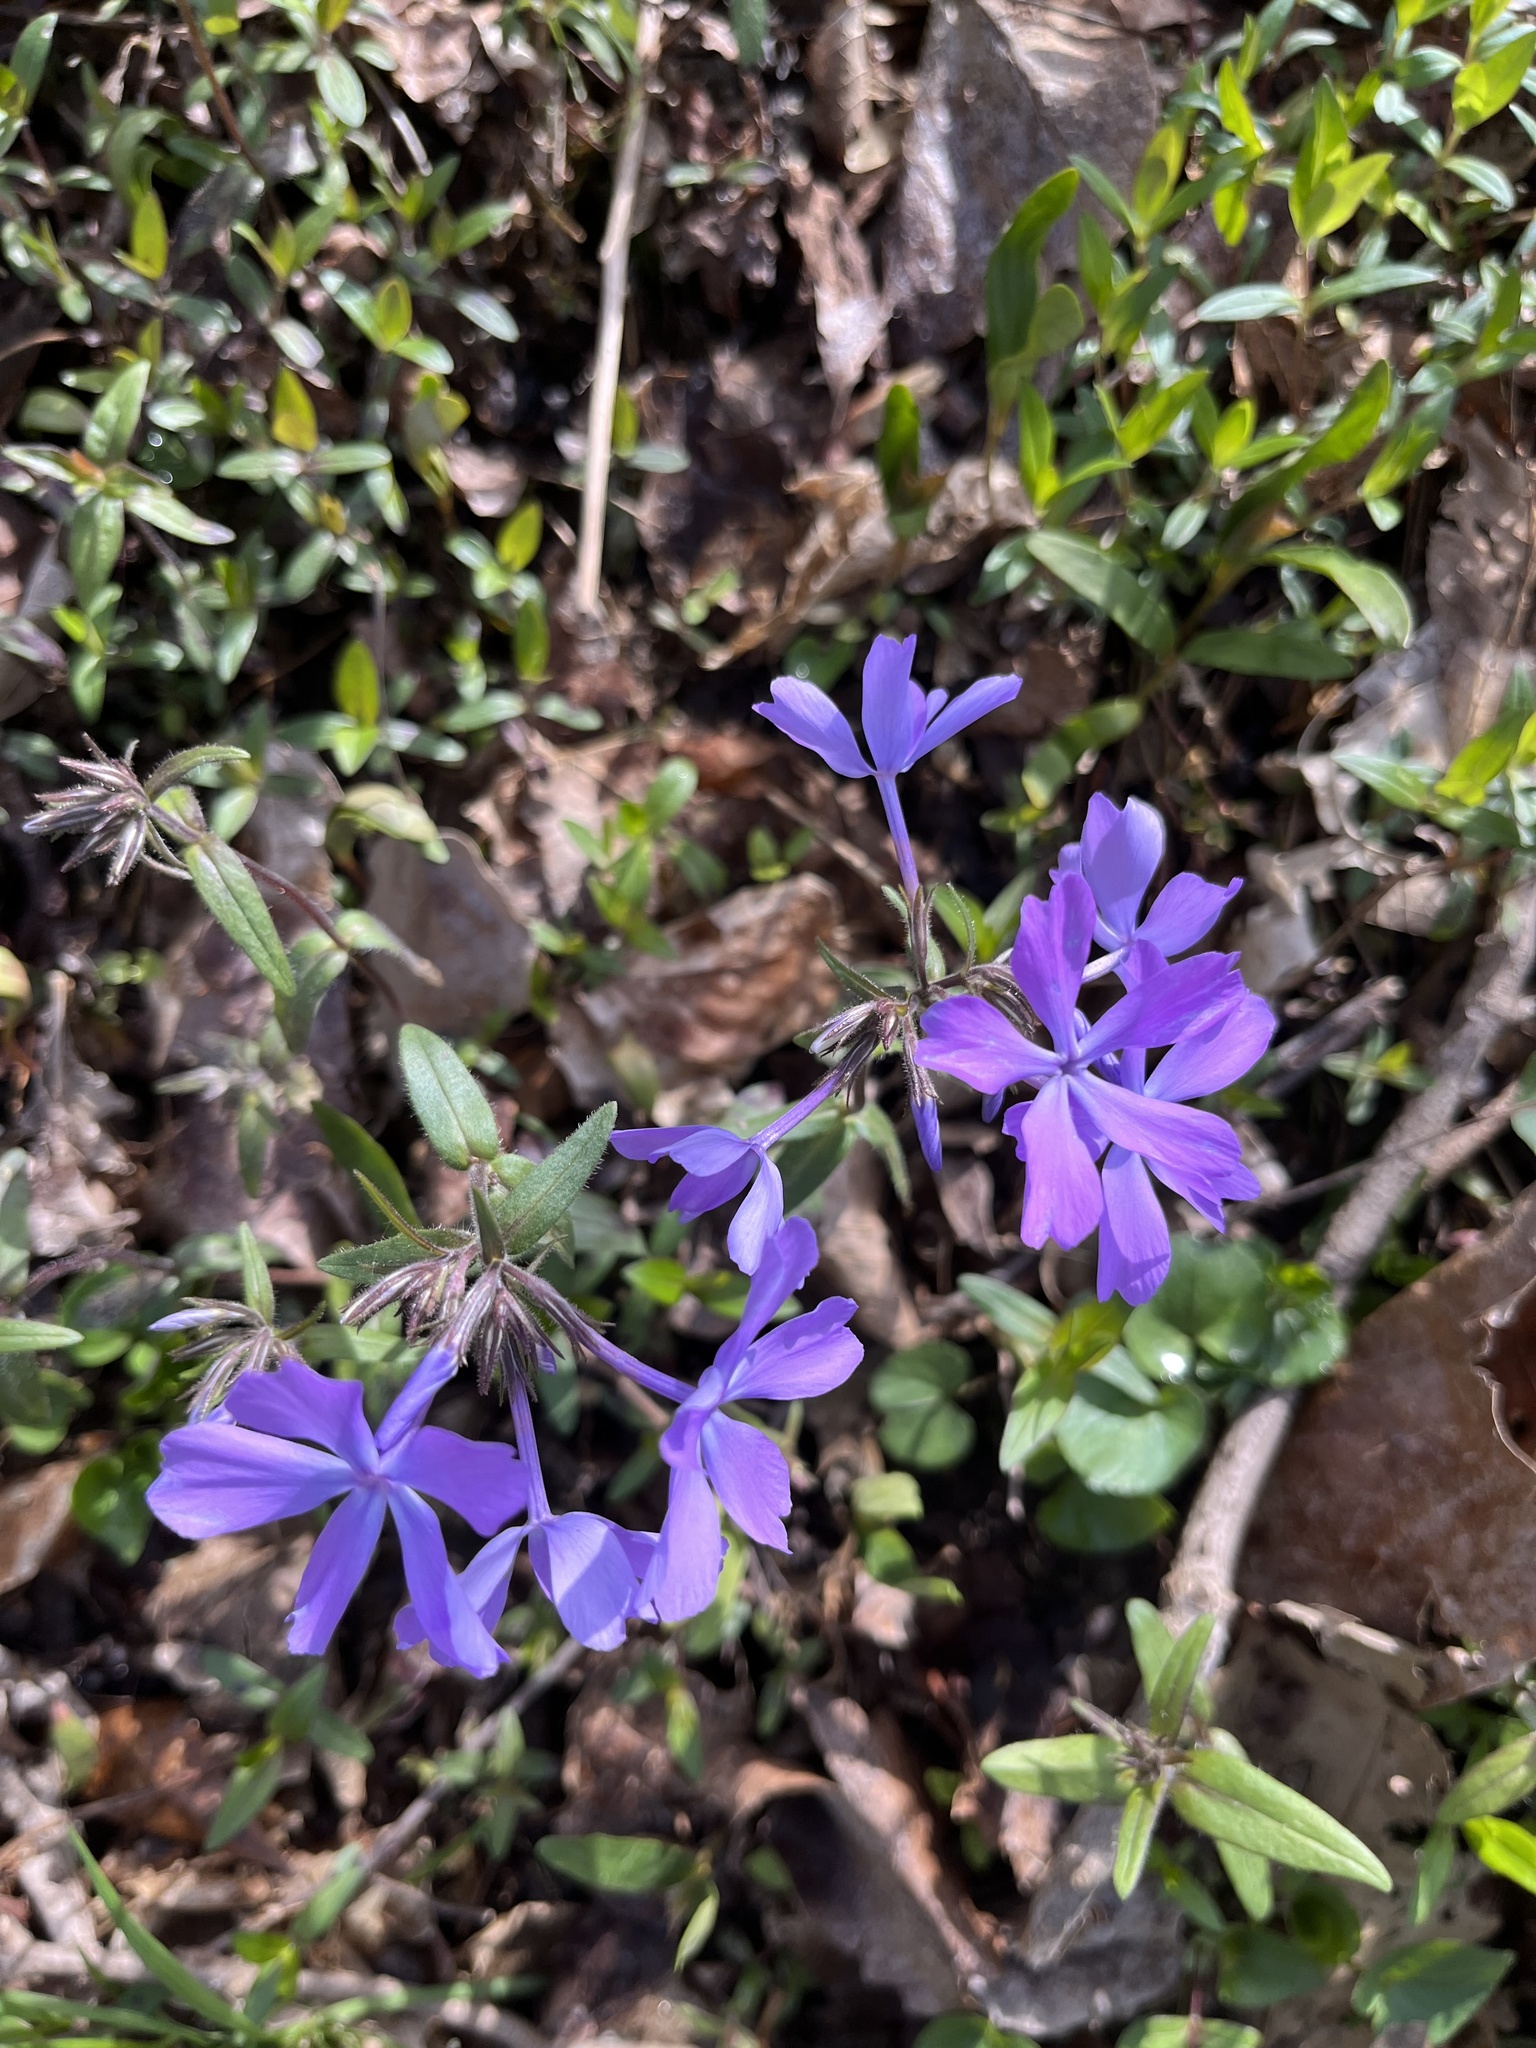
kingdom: Plantae
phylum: Tracheophyta
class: Magnoliopsida
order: Ericales
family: Polemoniaceae
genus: Phlox
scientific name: Phlox divaricata
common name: Blue phlox
